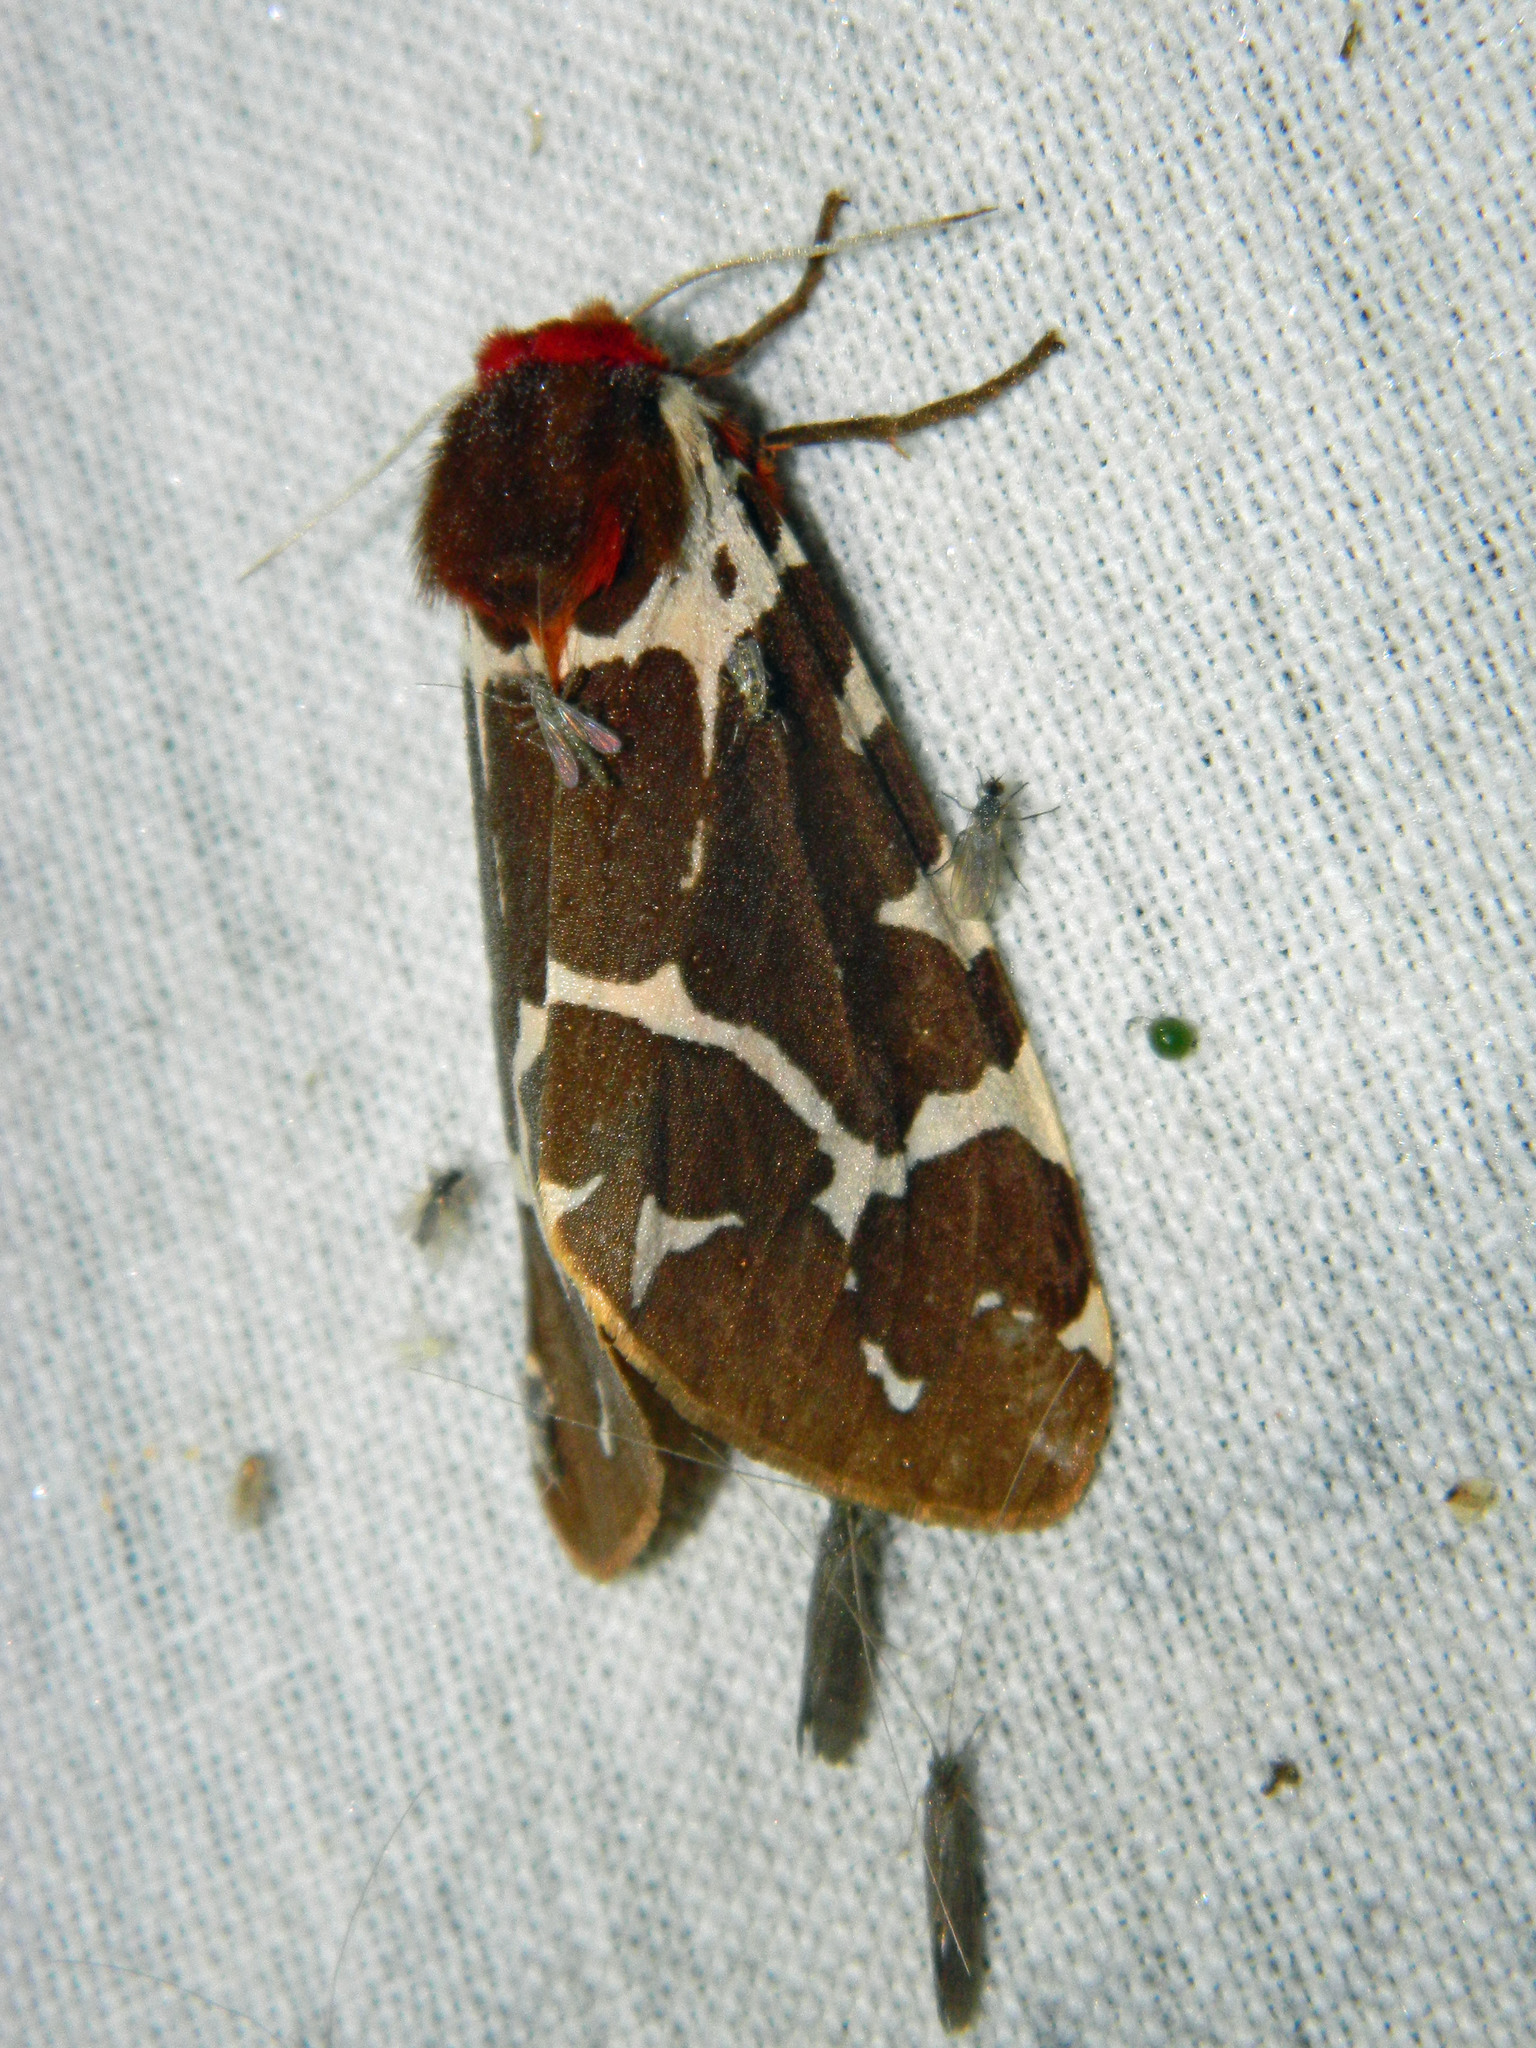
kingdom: Animalia
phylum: Arthropoda
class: Insecta
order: Lepidoptera
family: Erebidae
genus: Arctia
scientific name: Arctia caja
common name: Garden tiger
